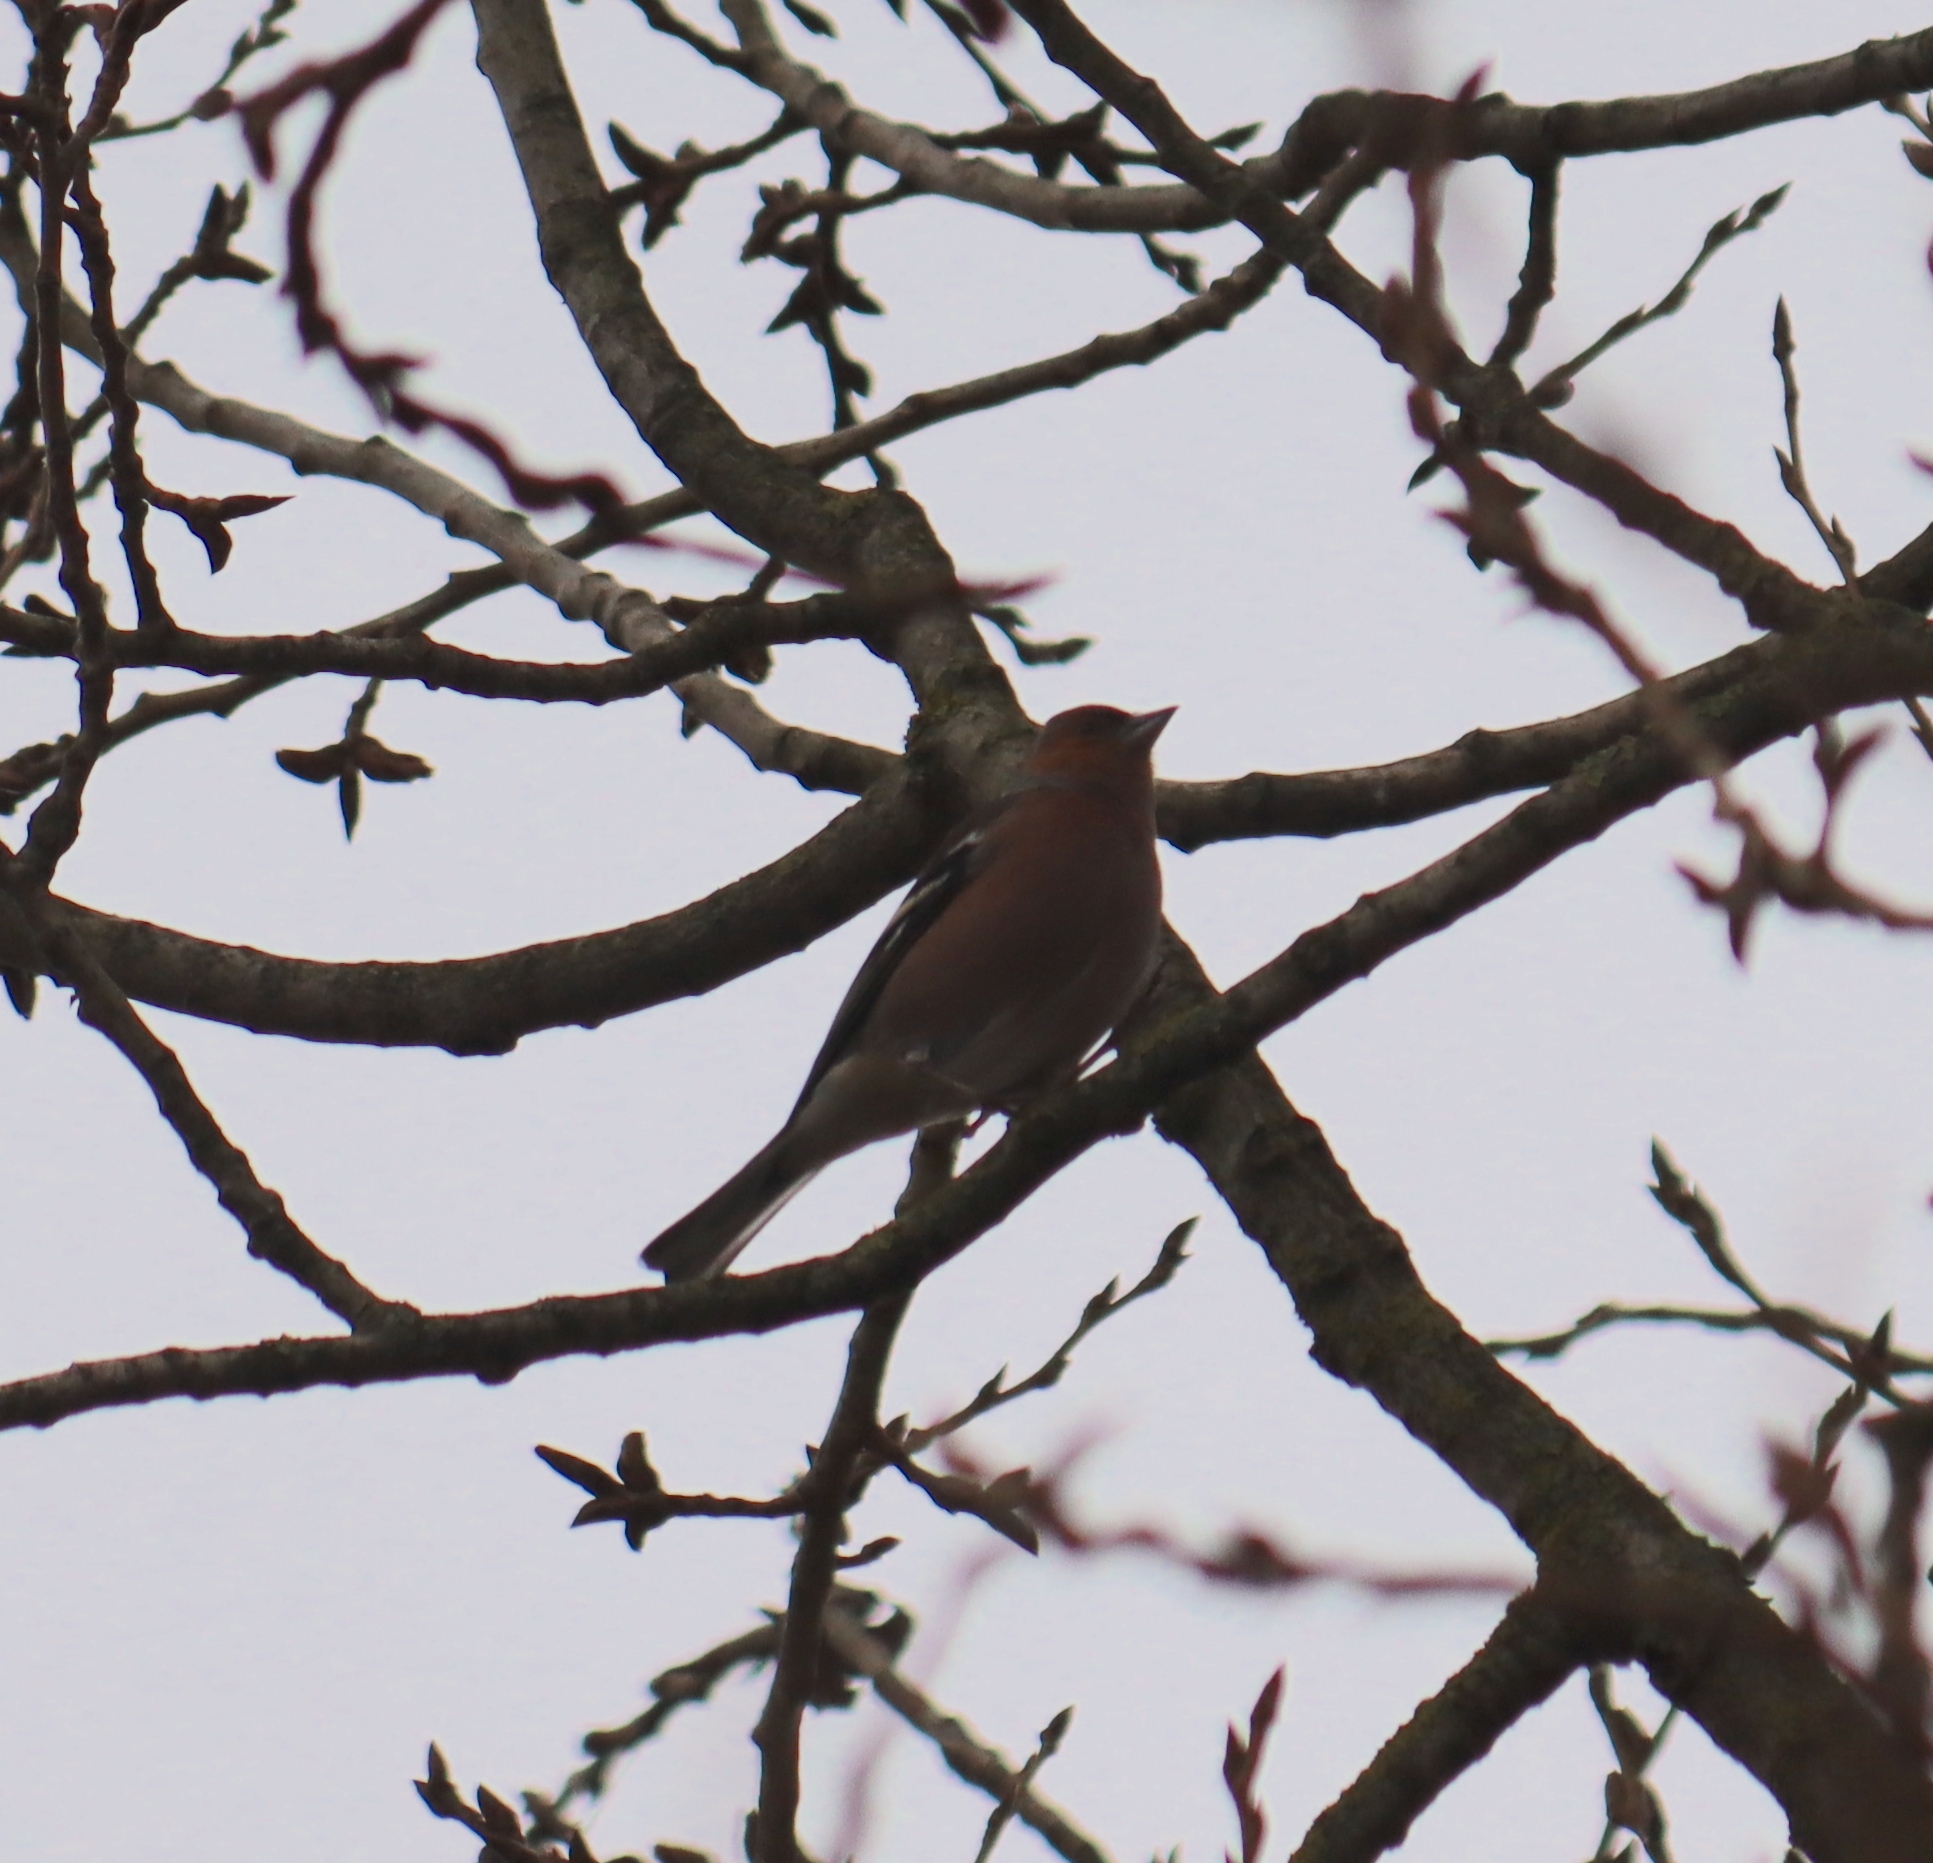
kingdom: Animalia
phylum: Chordata
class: Aves
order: Passeriformes
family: Fringillidae
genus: Fringilla
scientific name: Fringilla coelebs
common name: Common chaffinch
